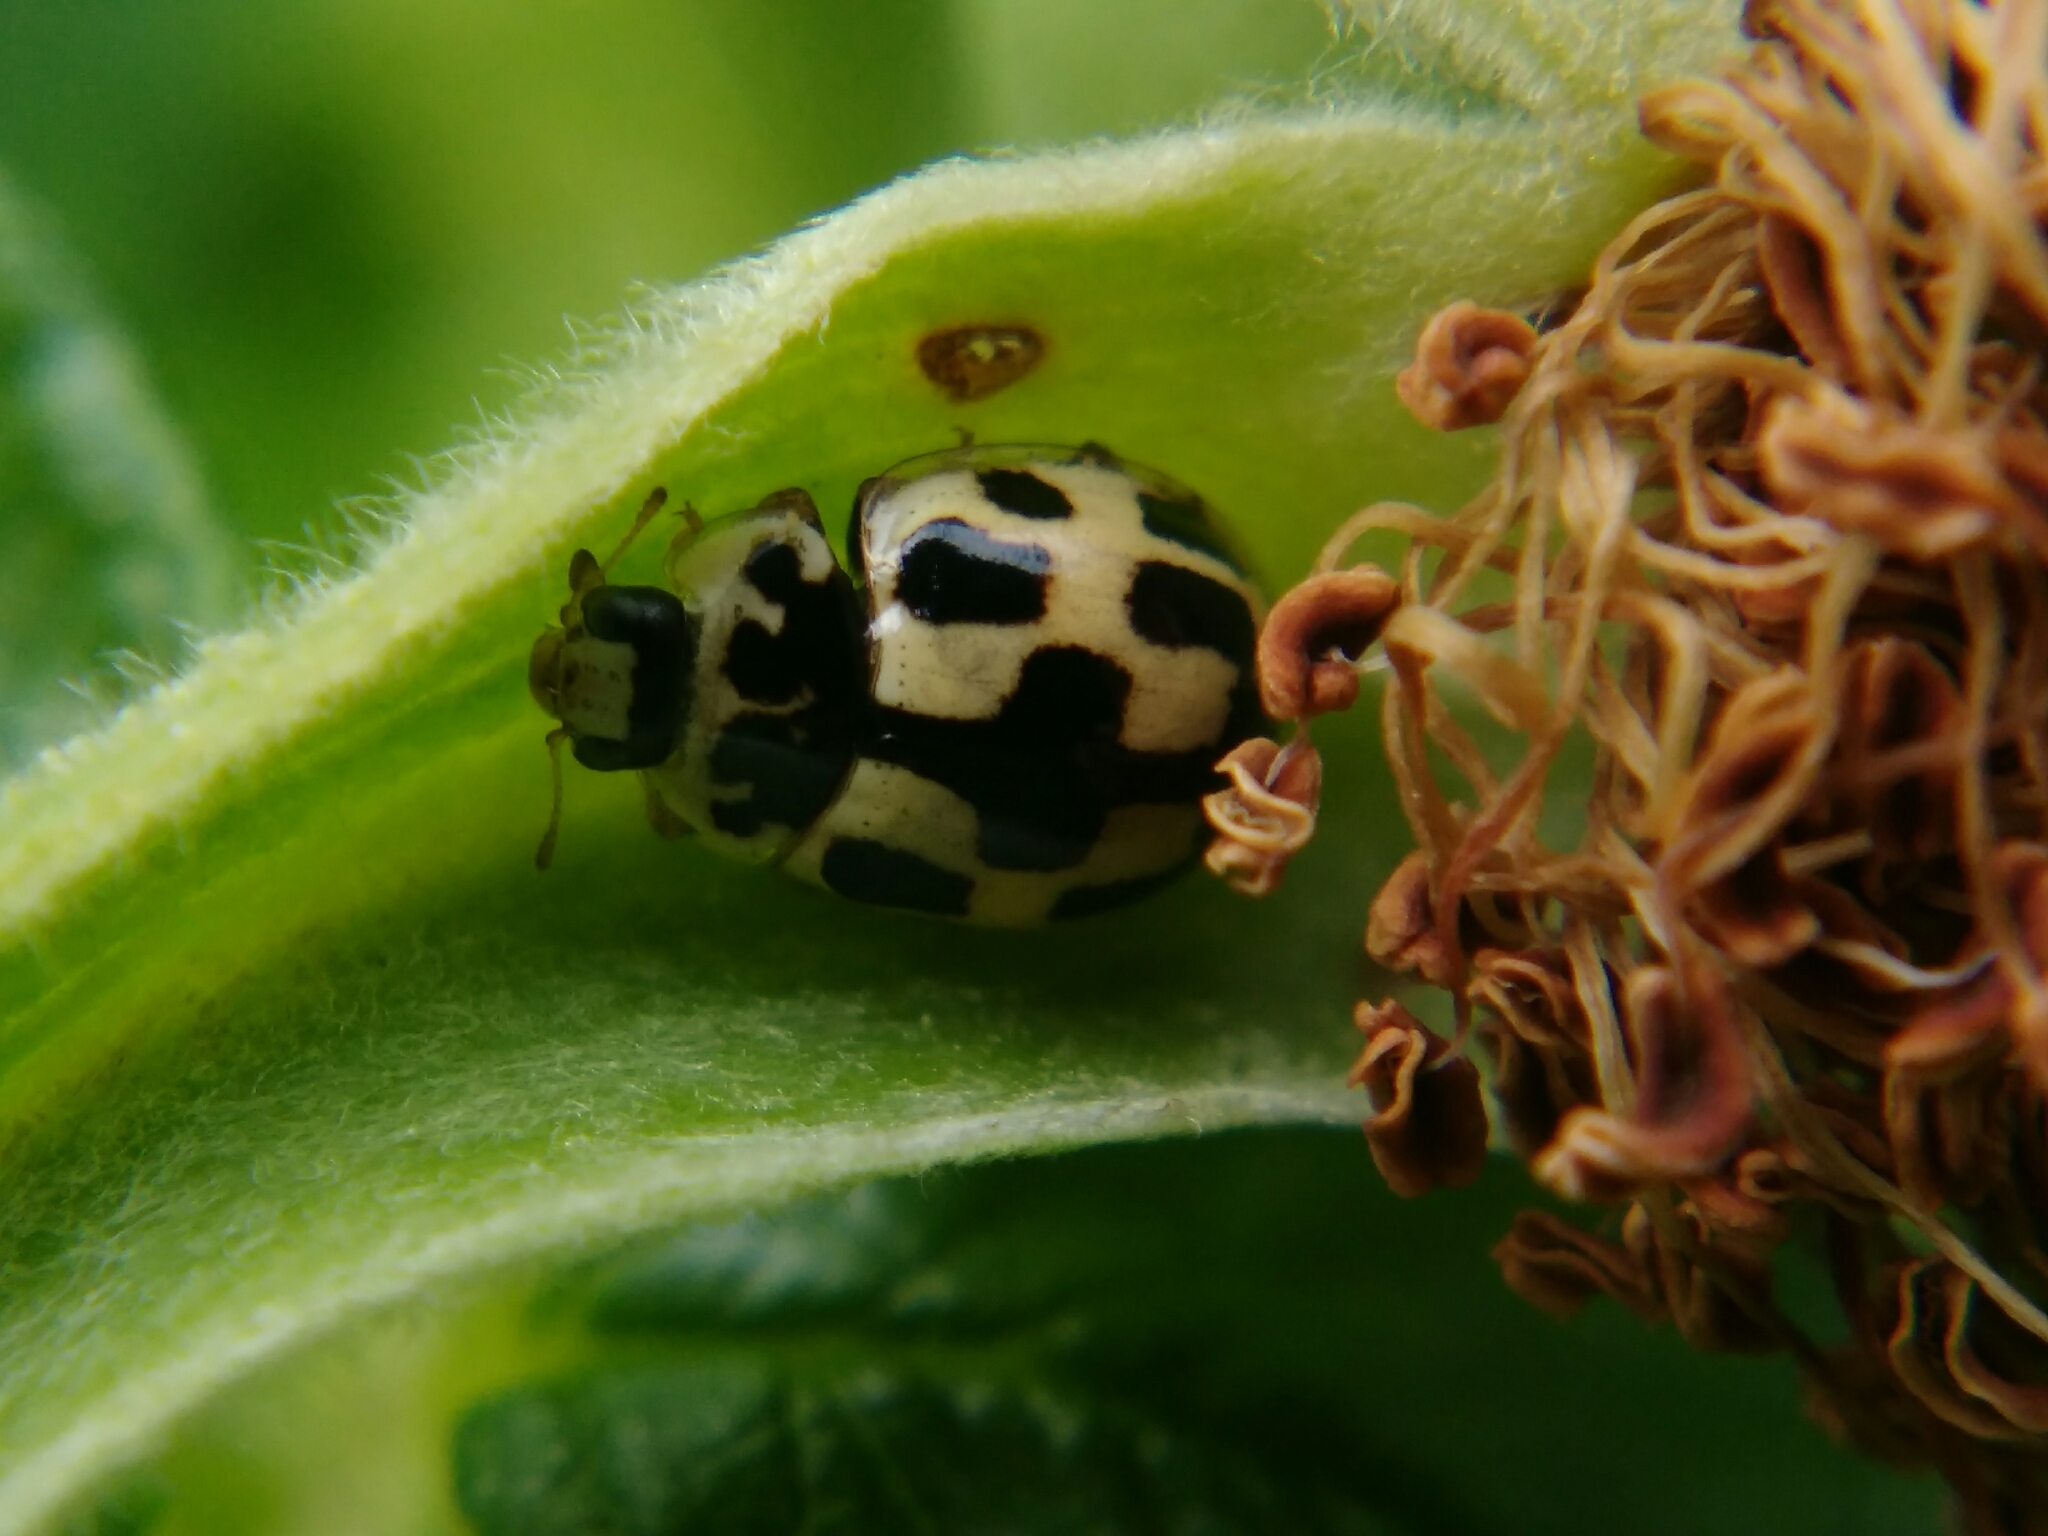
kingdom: Animalia
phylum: Arthropoda
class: Insecta
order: Coleoptera
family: Coccinellidae
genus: Propylaea
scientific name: Propylaea quatuordecimpunctata
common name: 14-spotted ladybird beetle
